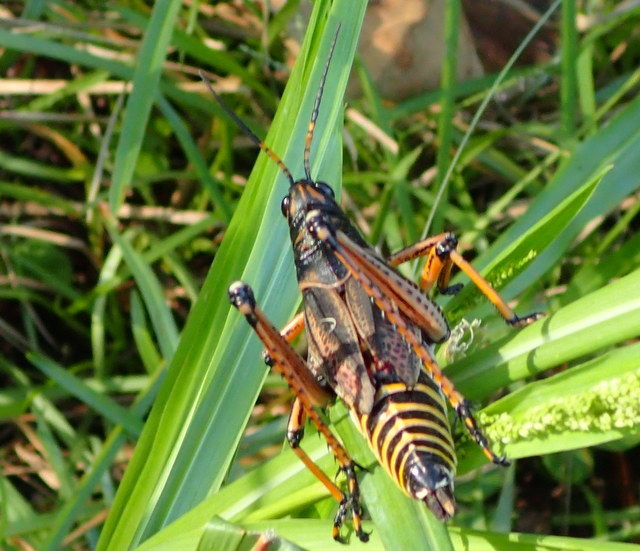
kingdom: Animalia
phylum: Arthropoda
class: Insecta
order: Orthoptera
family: Romaleidae
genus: Romalea
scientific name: Romalea microptera
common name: Eastern lubber grasshopper
